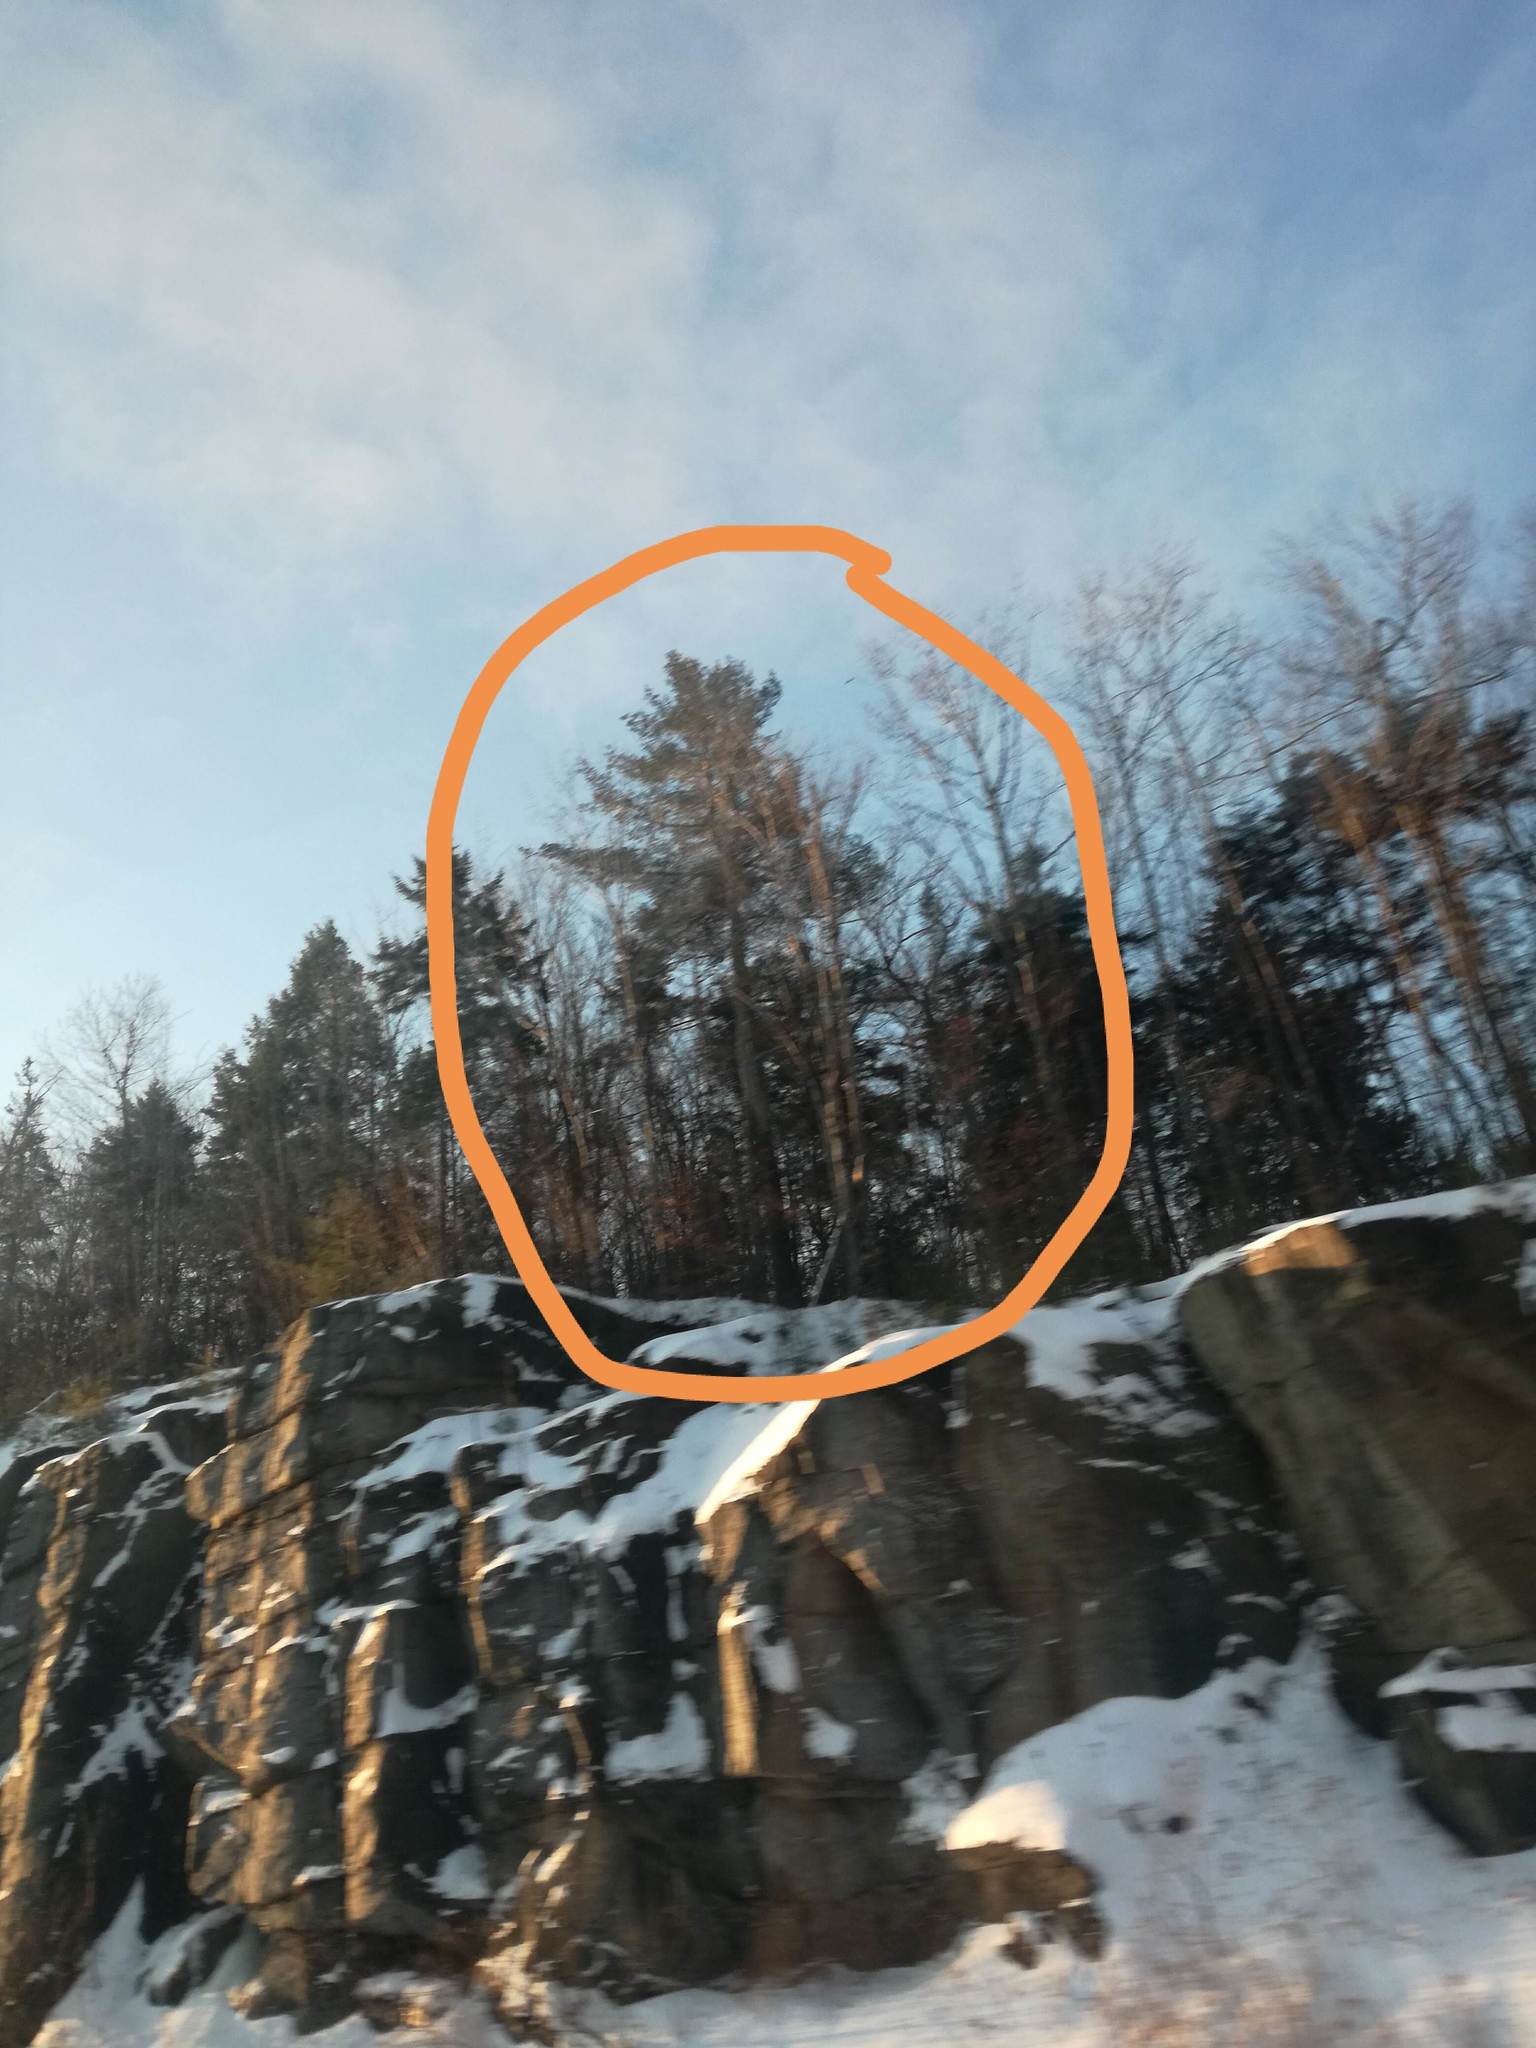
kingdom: Plantae
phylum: Tracheophyta
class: Pinopsida
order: Pinales
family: Pinaceae
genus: Pinus
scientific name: Pinus strobus
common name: Weymouth pine
